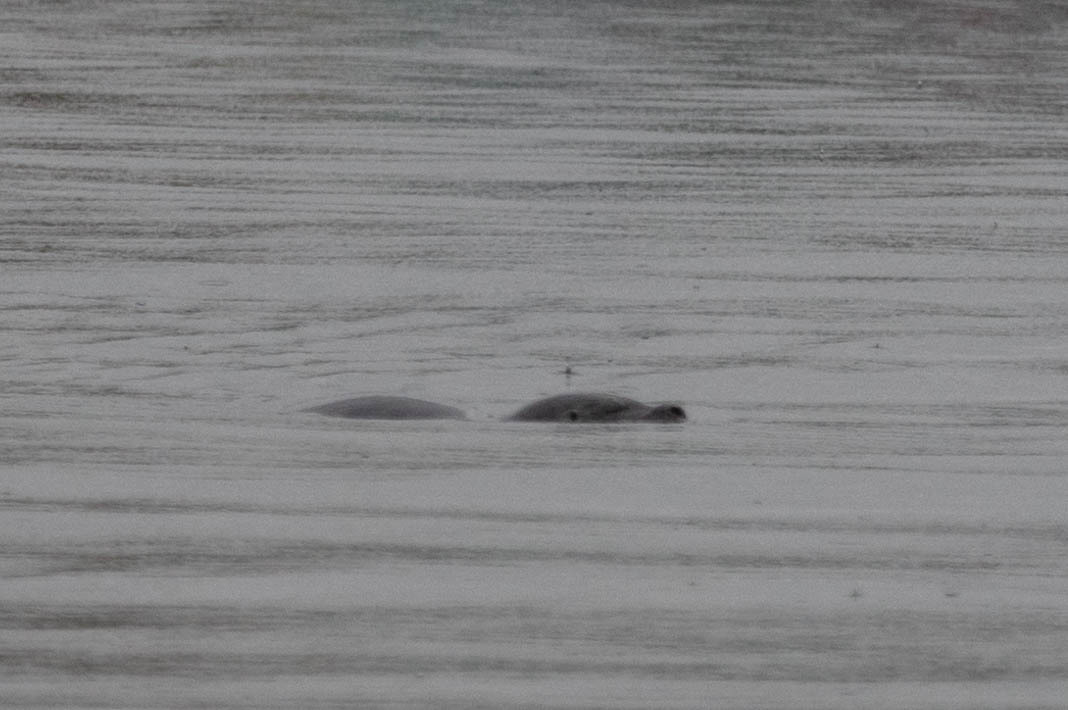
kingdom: Animalia
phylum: Chordata
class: Mammalia
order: Carnivora
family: Phocidae
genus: Phoca
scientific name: Phoca vitulina
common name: Harbor seal
